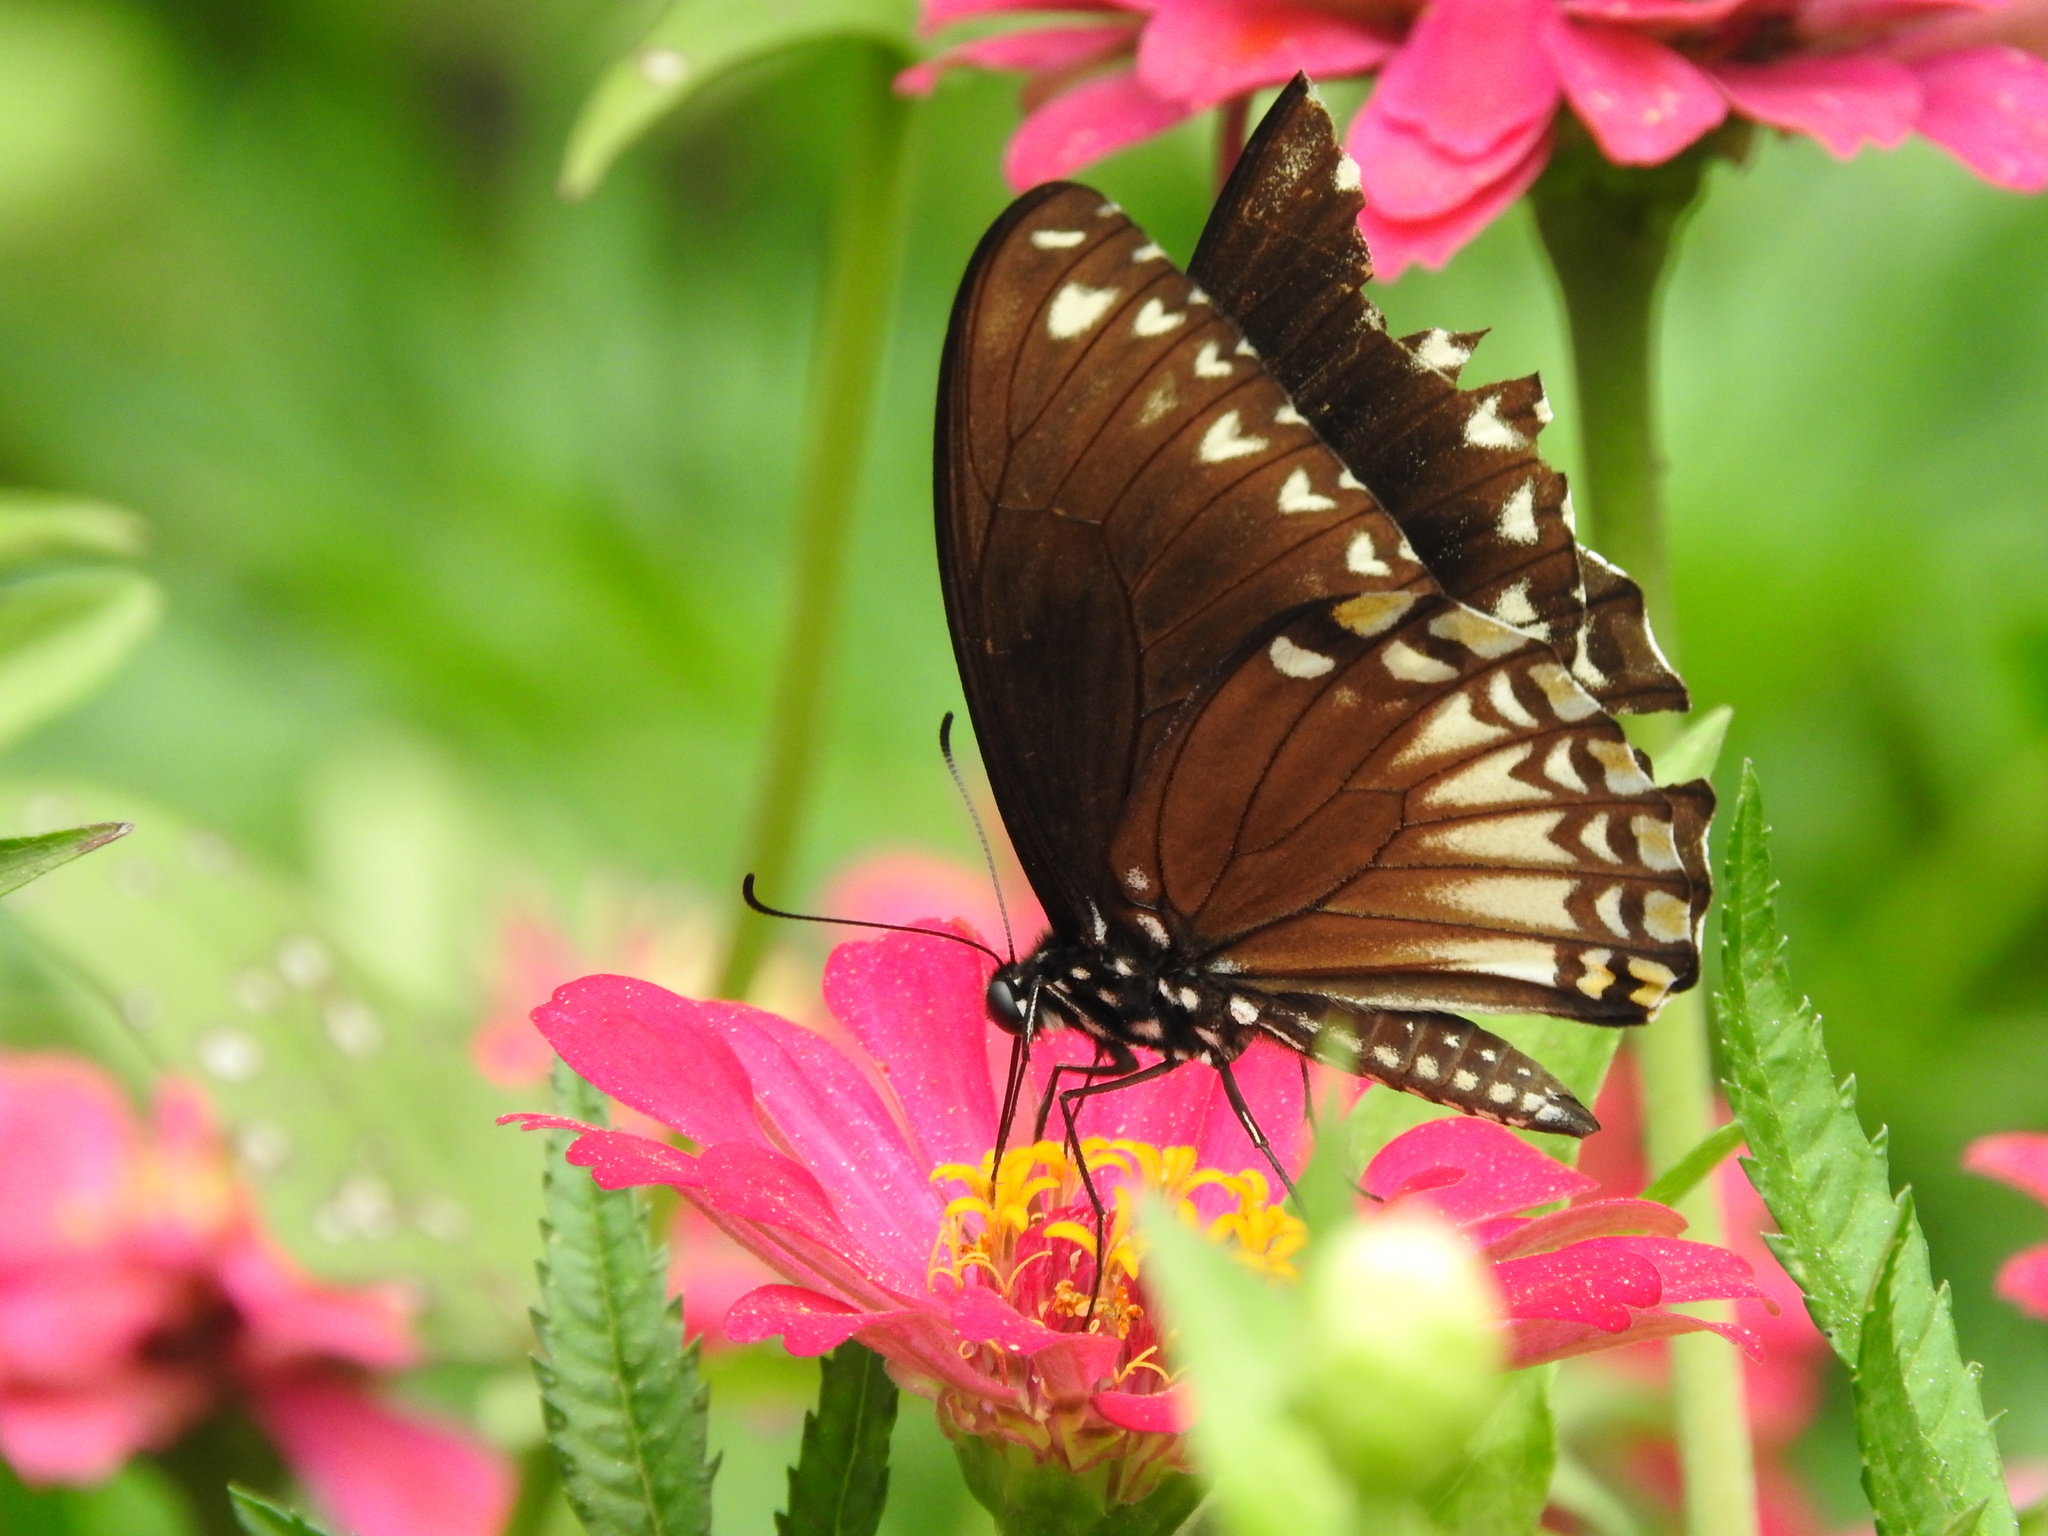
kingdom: Animalia
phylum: Arthropoda
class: Insecta
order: Lepidoptera
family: Papilionidae
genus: Chilasa
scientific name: Chilasa clytia
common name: Common mime
